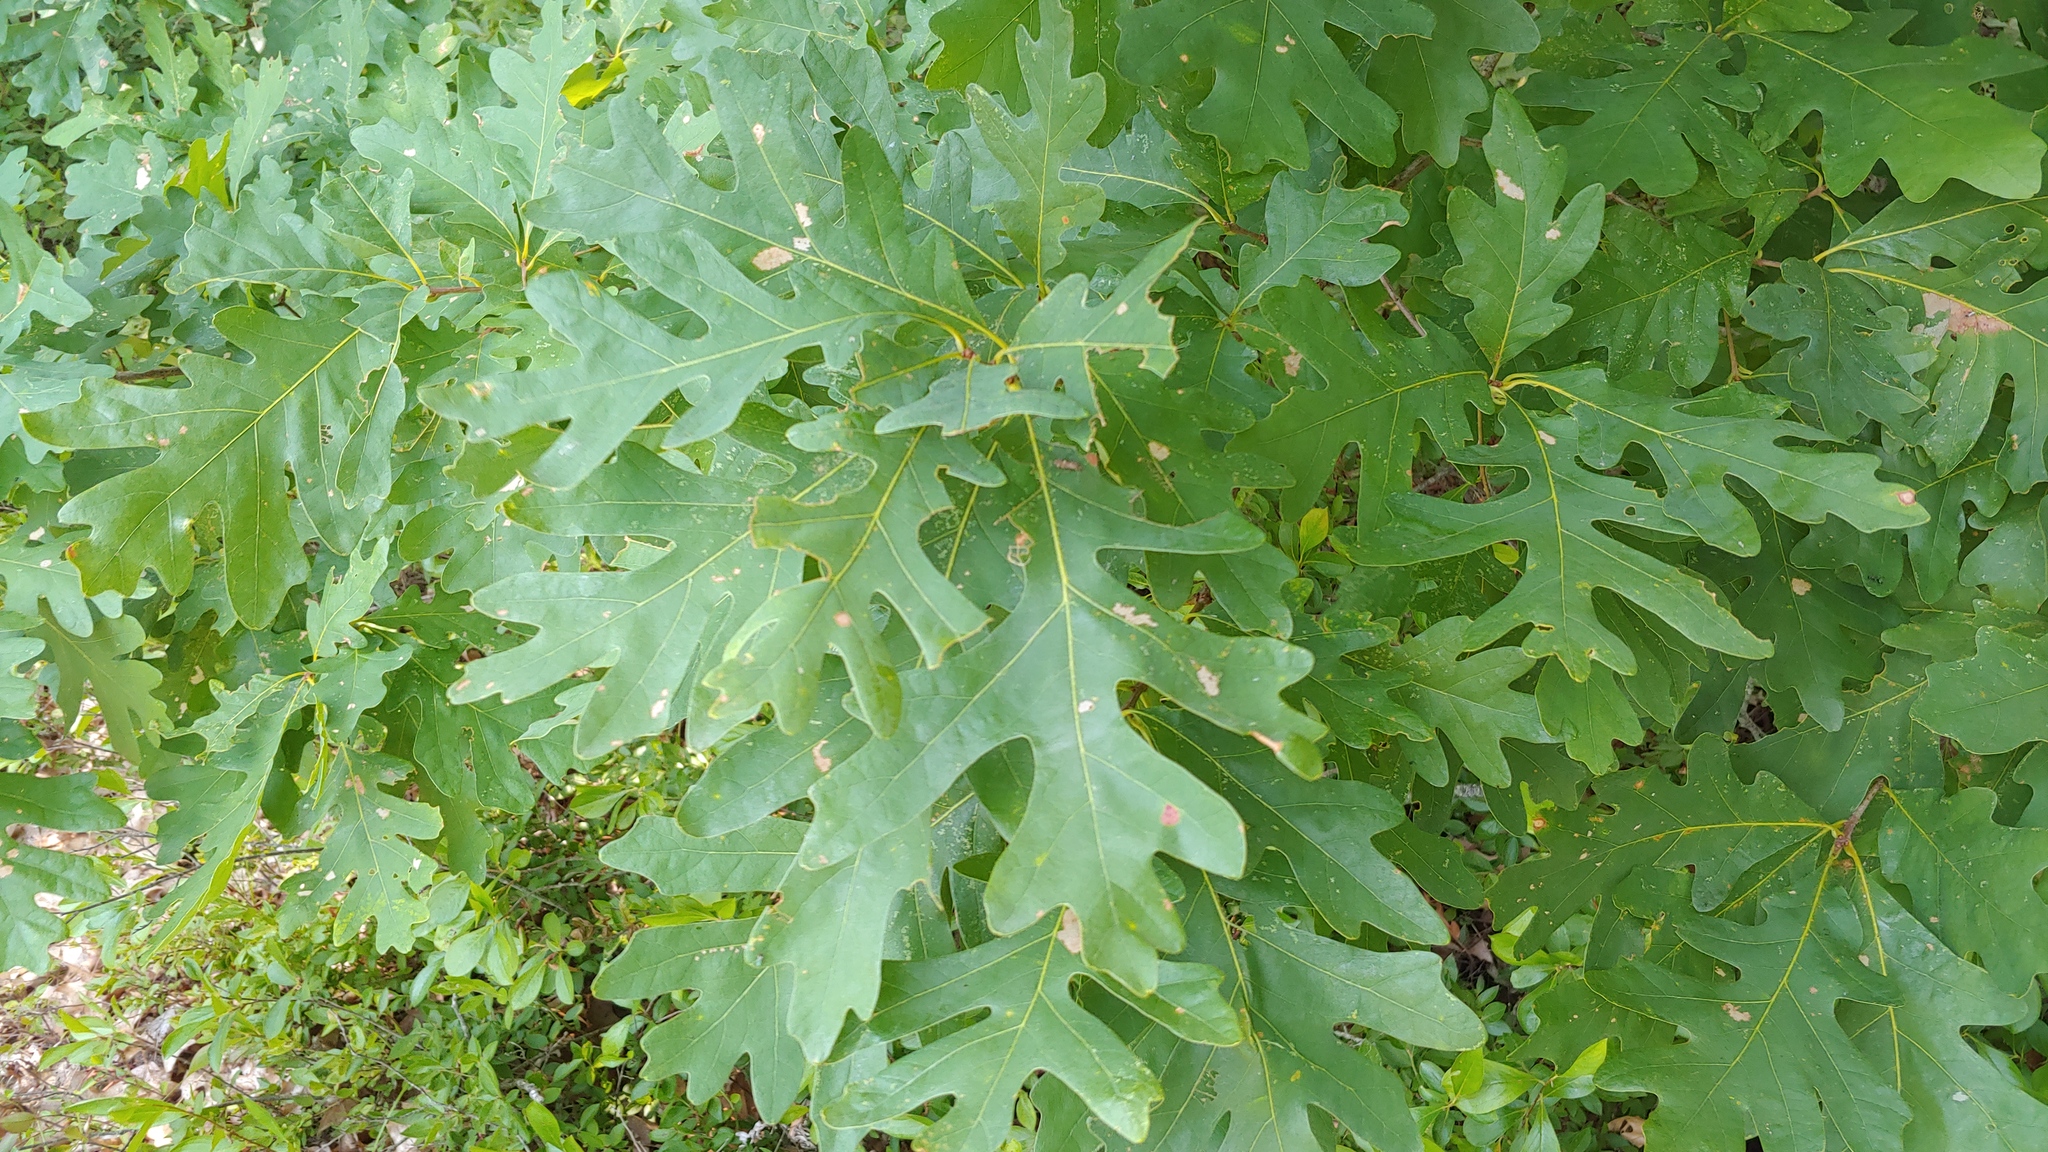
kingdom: Plantae
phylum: Tracheophyta
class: Magnoliopsida
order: Fagales
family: Fagaceae
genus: Quercus
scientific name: Quercus alba
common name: White oak
